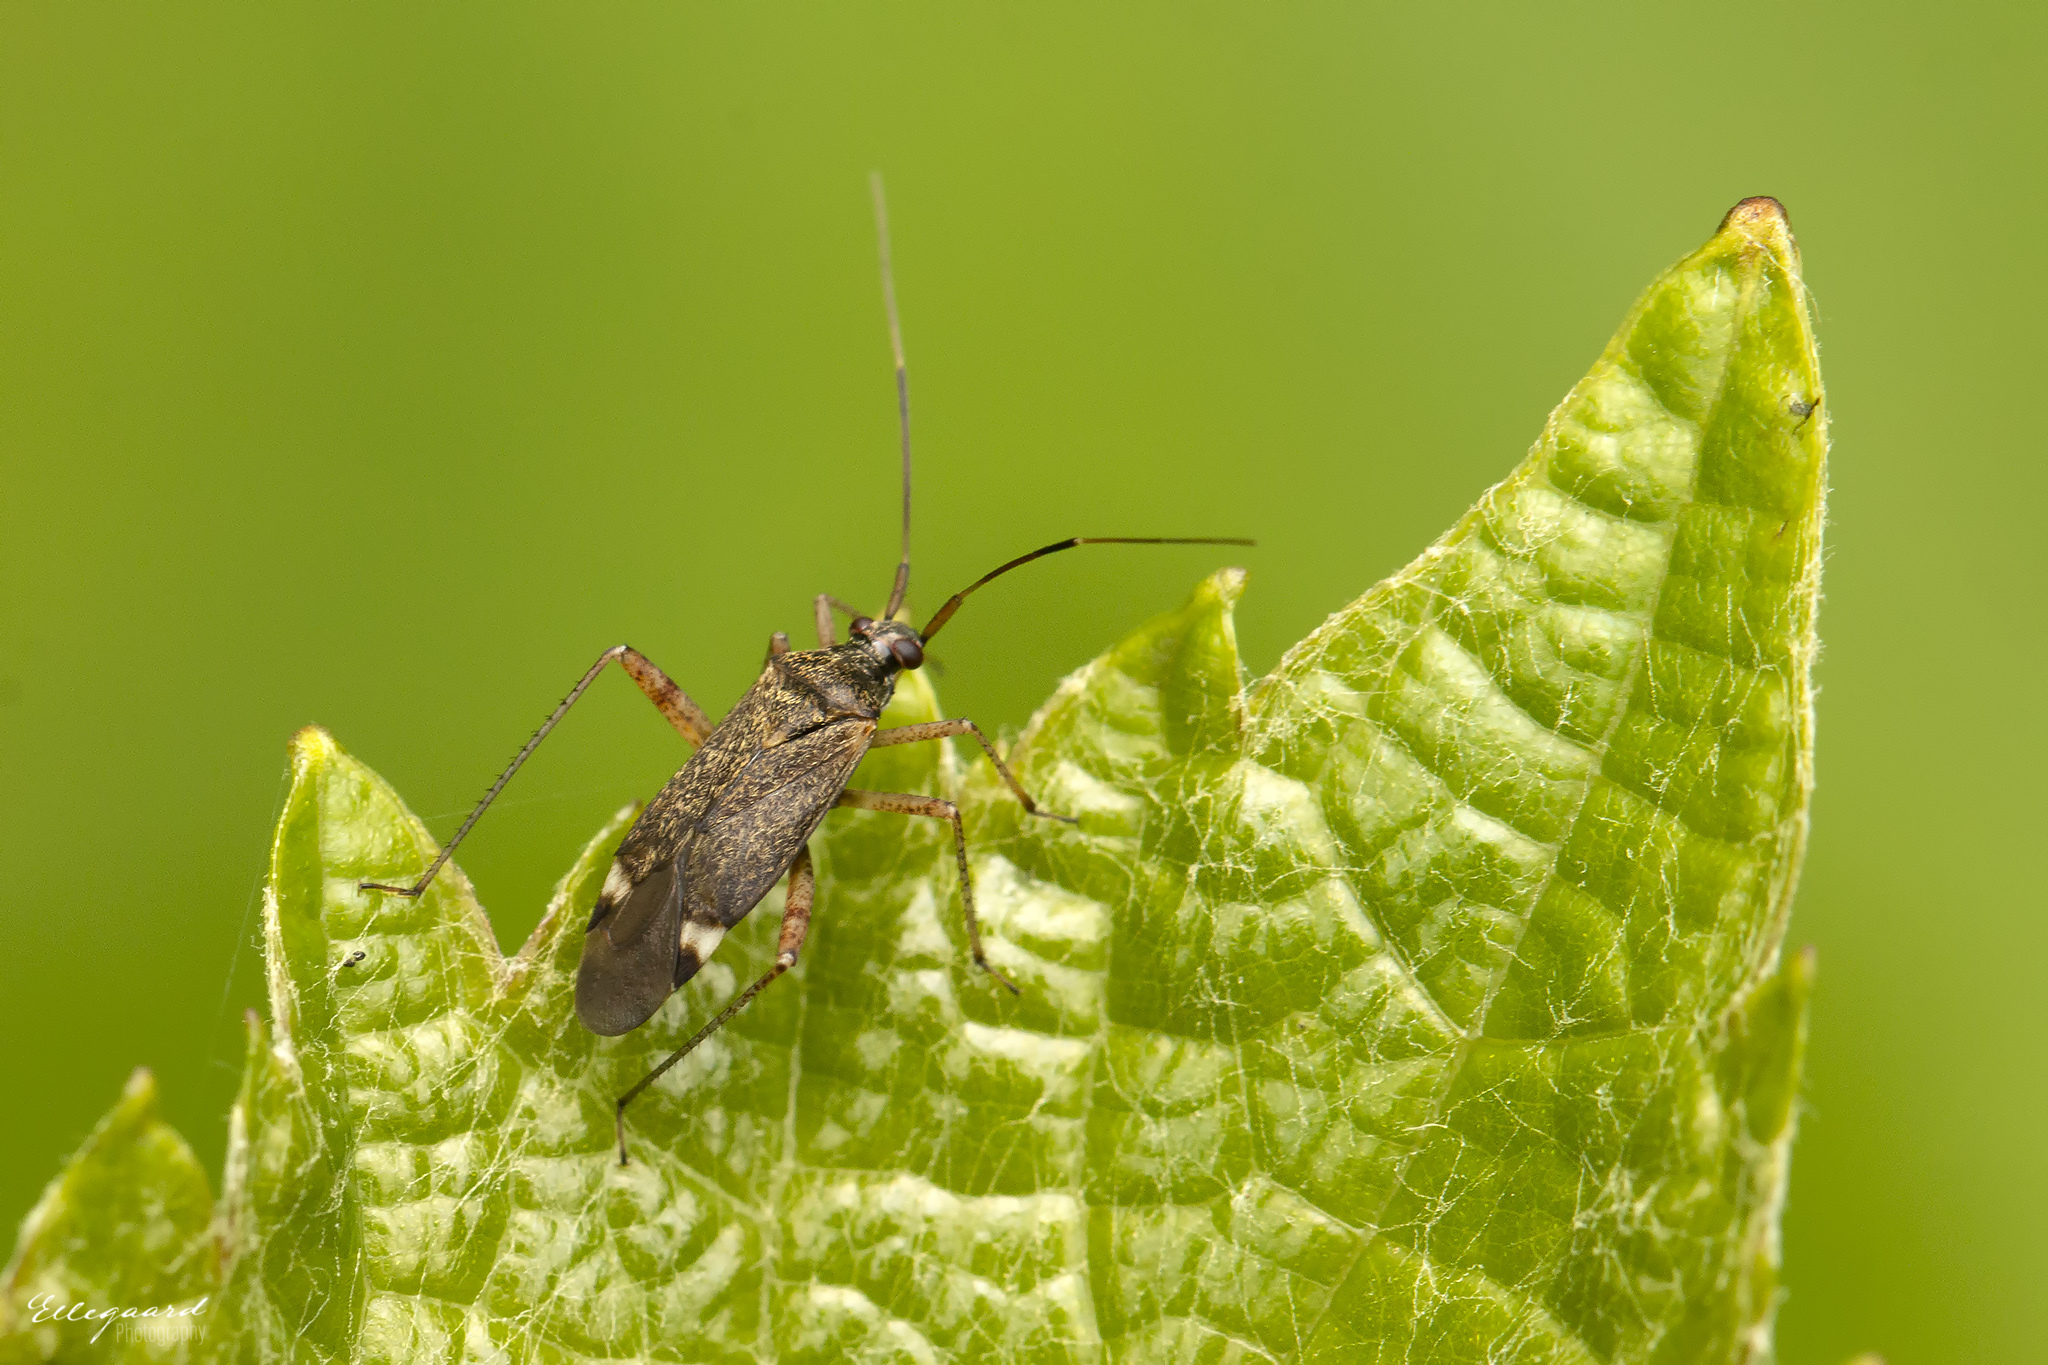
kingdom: Animalia
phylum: Arthropoda
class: Insecta
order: Hemiptera
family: Miridae
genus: Closterotomus
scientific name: Closterotomus fulvomaculatus
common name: Spotted plant bug
